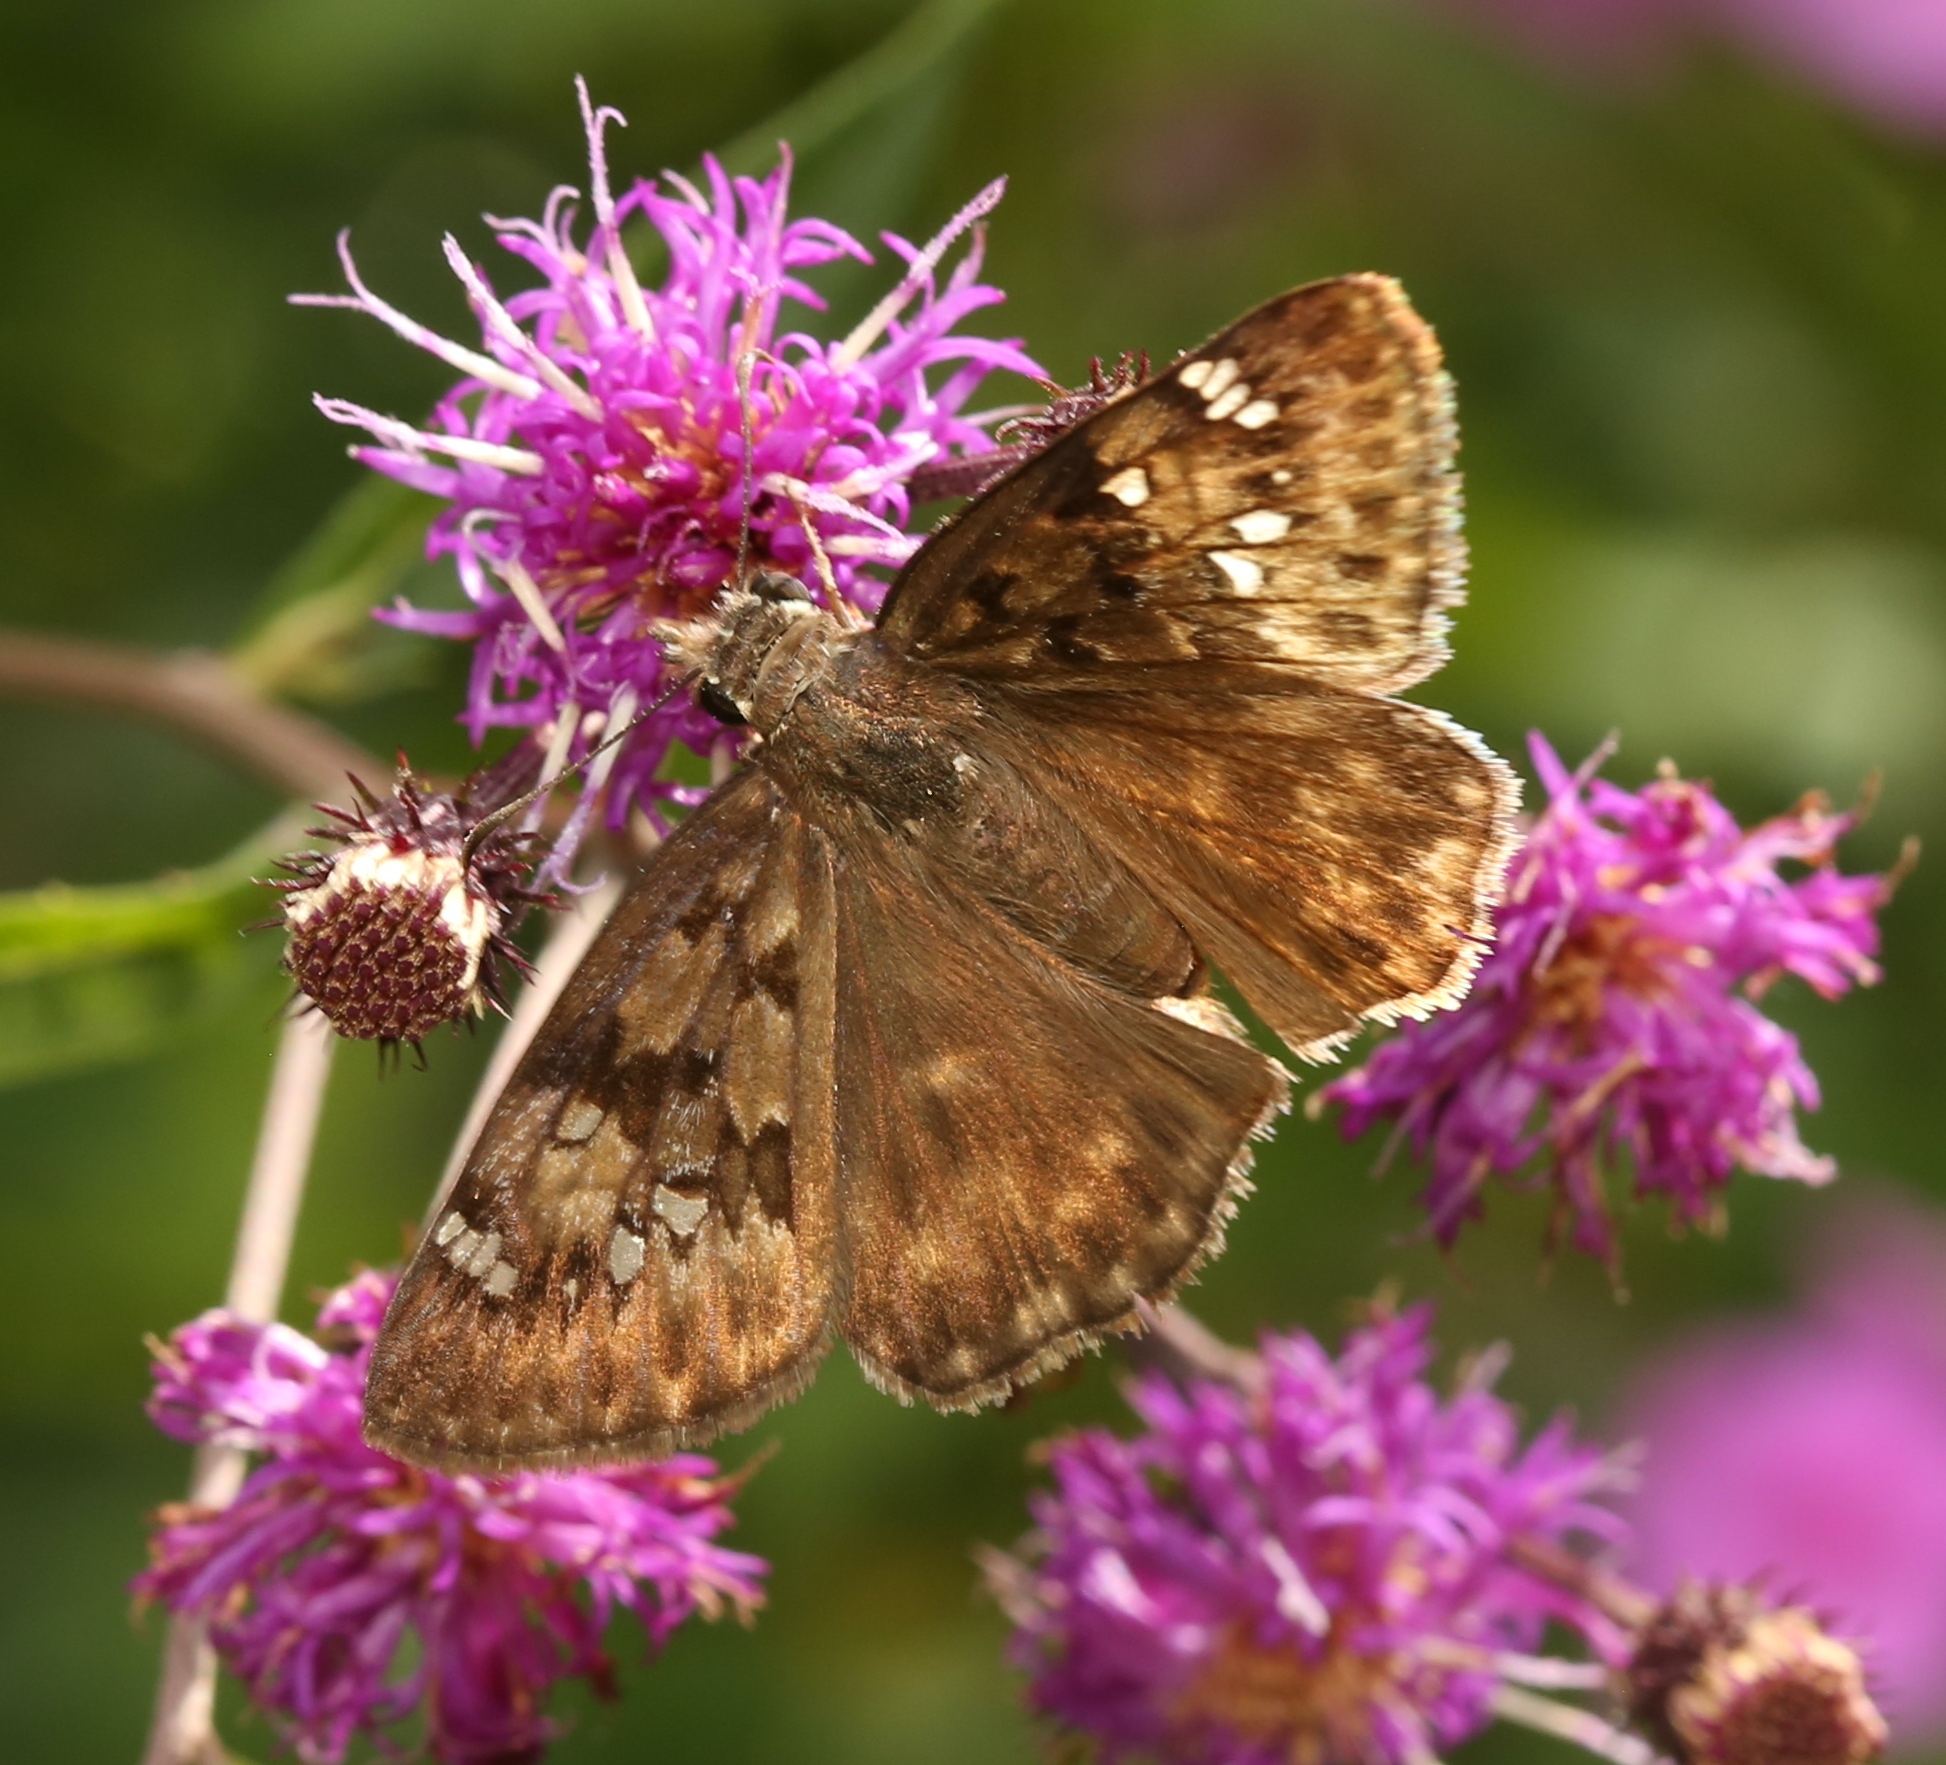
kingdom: Animalia
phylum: Arthropoda
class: Insecta
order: Lepidoptera
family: Hesperiidae
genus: Erynnis
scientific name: Erynnis horatius
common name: Horace's duskywing
